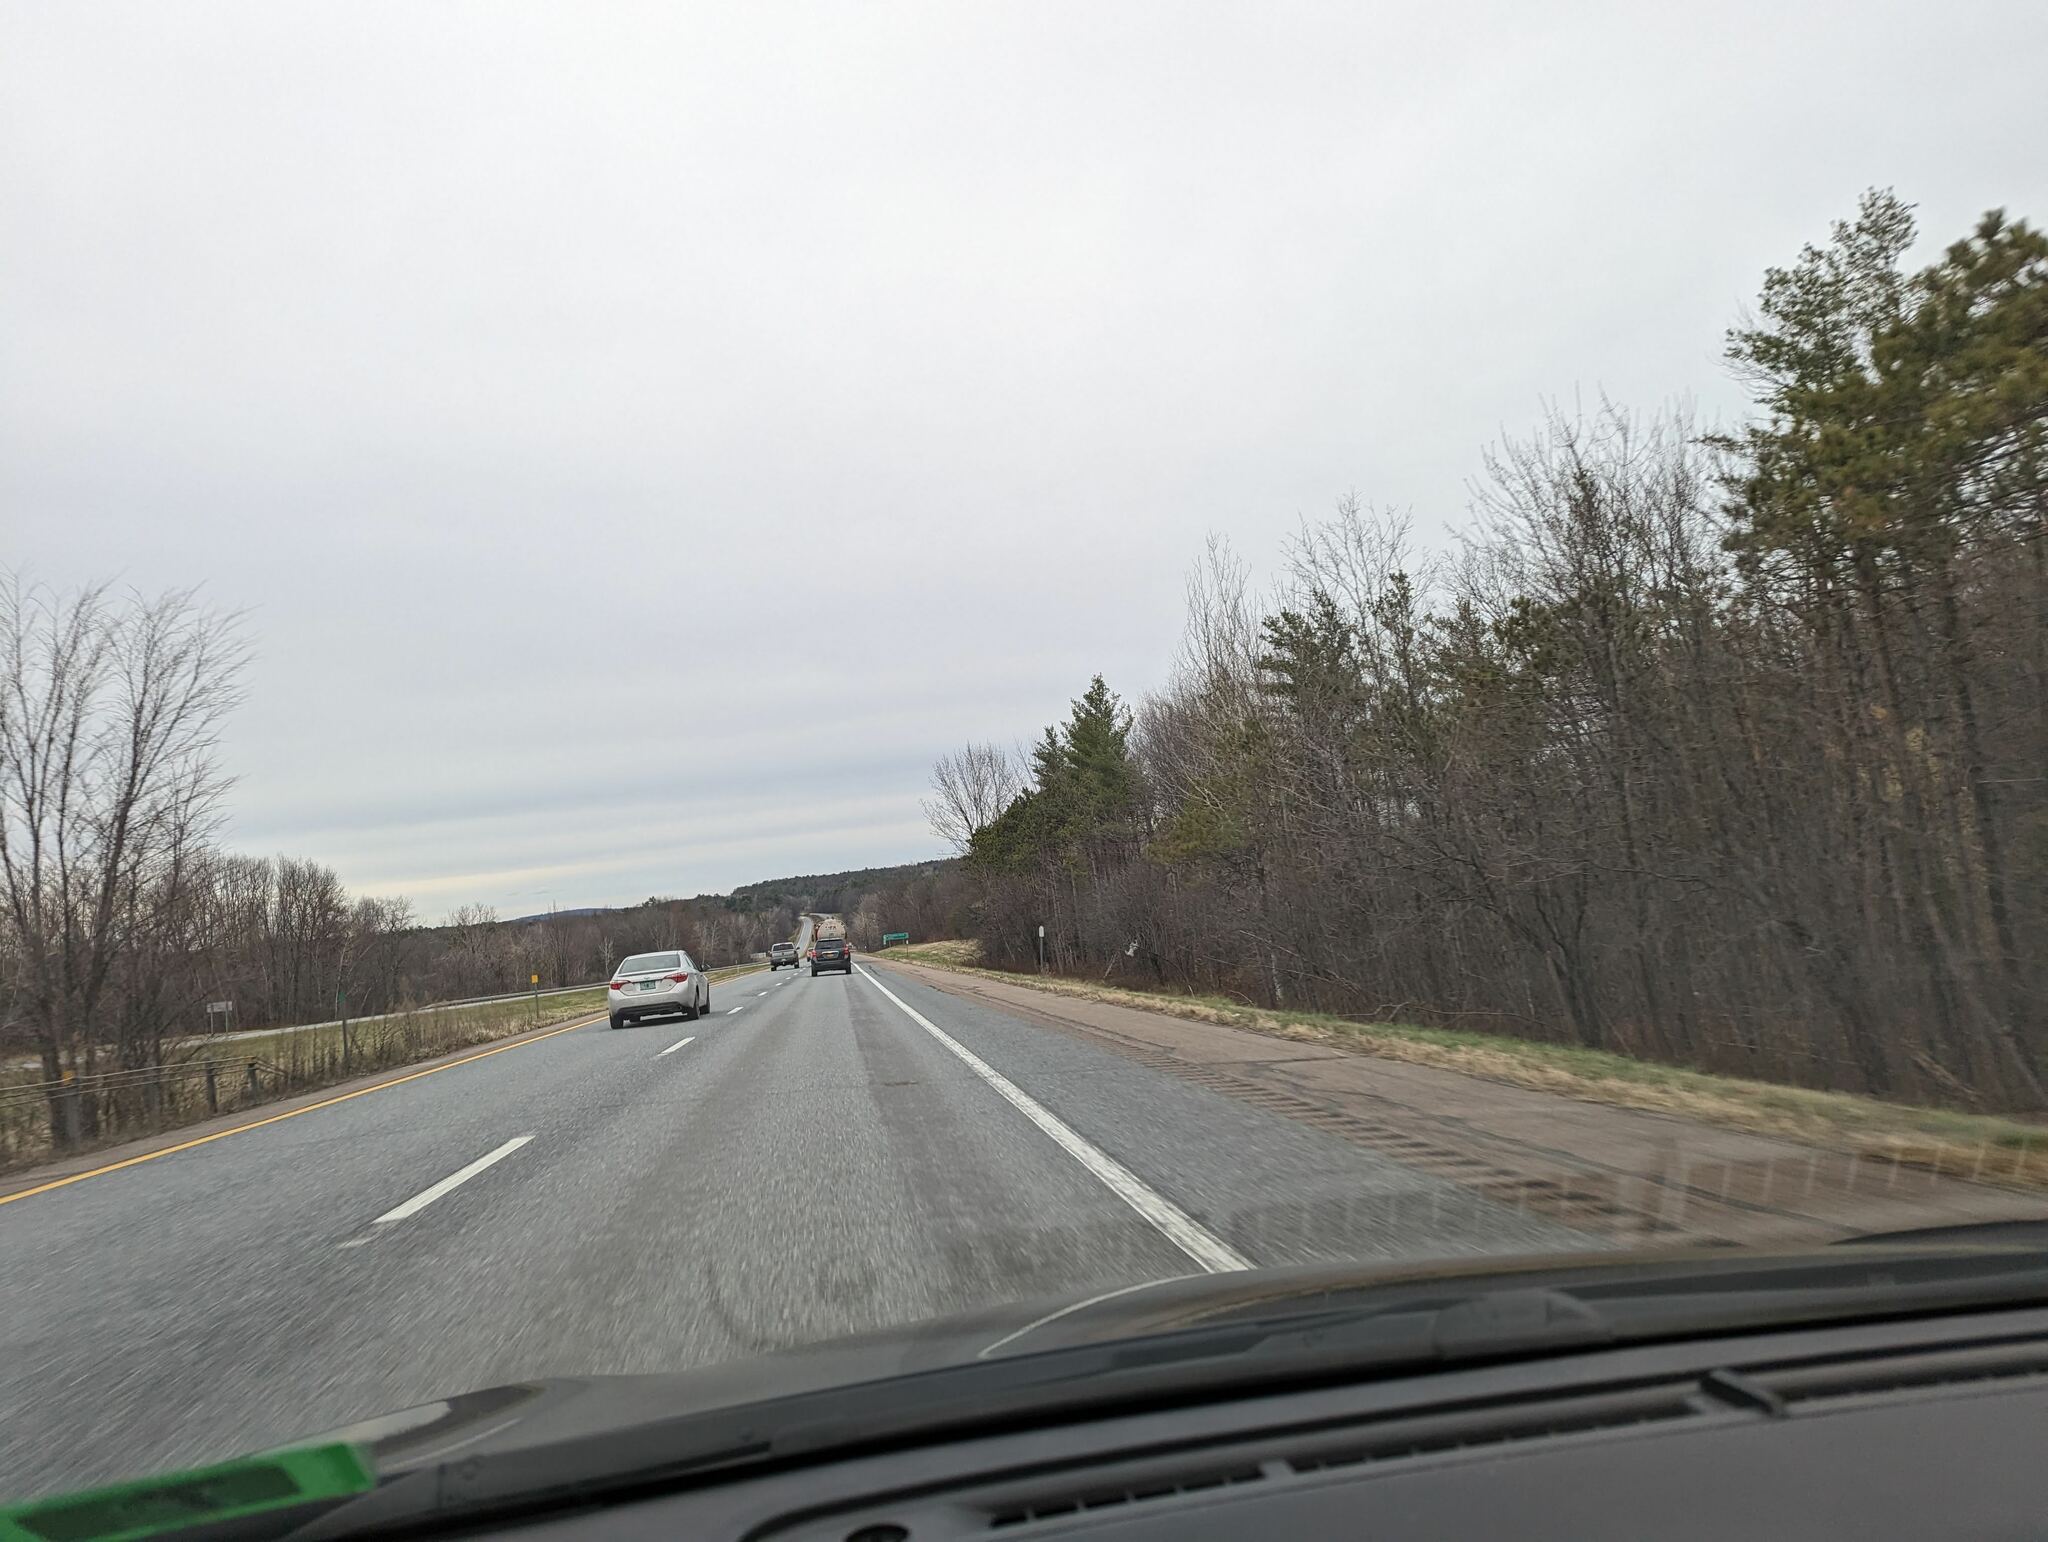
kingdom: Plantae
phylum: Tracheophyta
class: Pinopsida
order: Pinales
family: Pinaceae
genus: Pinus
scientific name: Pinus strobus
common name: Weymouth pine
